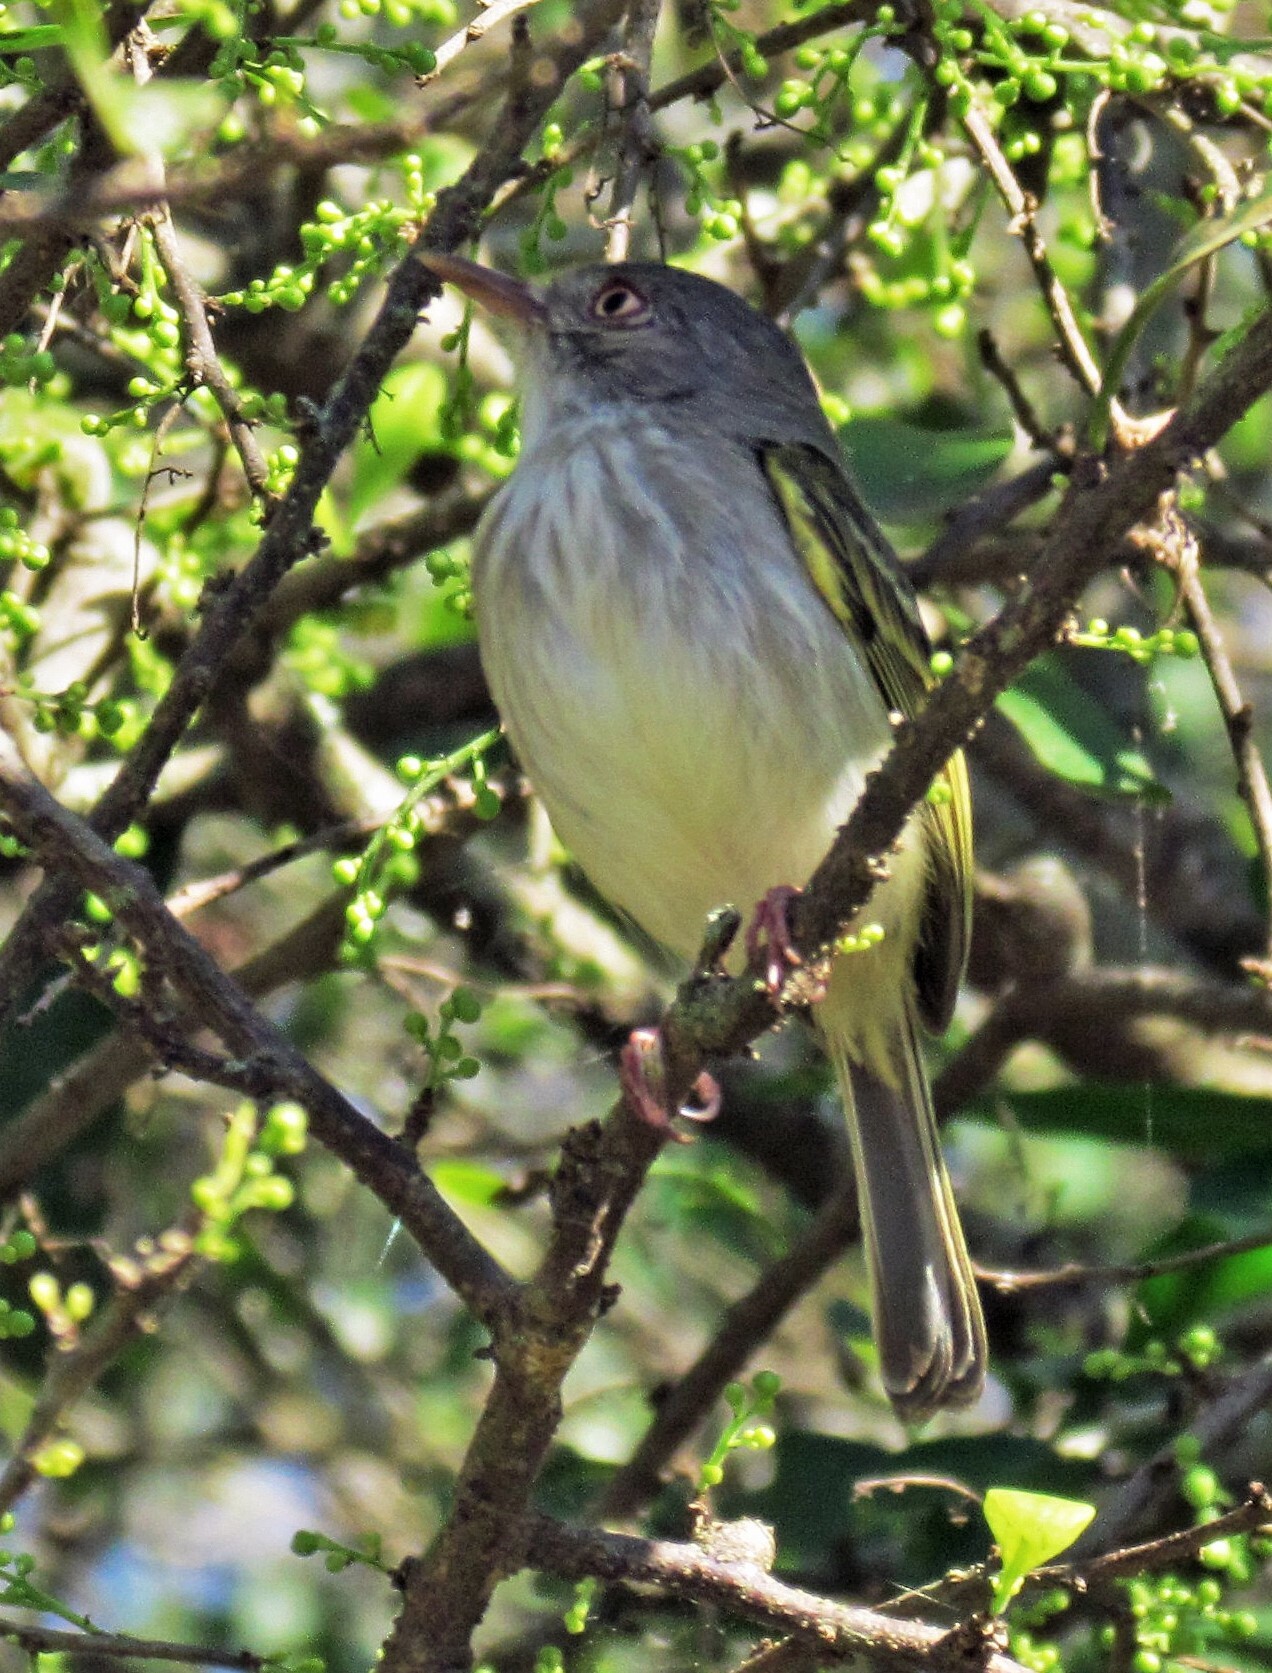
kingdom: Animalia
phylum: Chordata
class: Aves
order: Passeriformes
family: Tyrannidae
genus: Hemitriccus
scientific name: Hemitriccus margaritaceiventer
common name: Pearly-vented tody-tyrant
